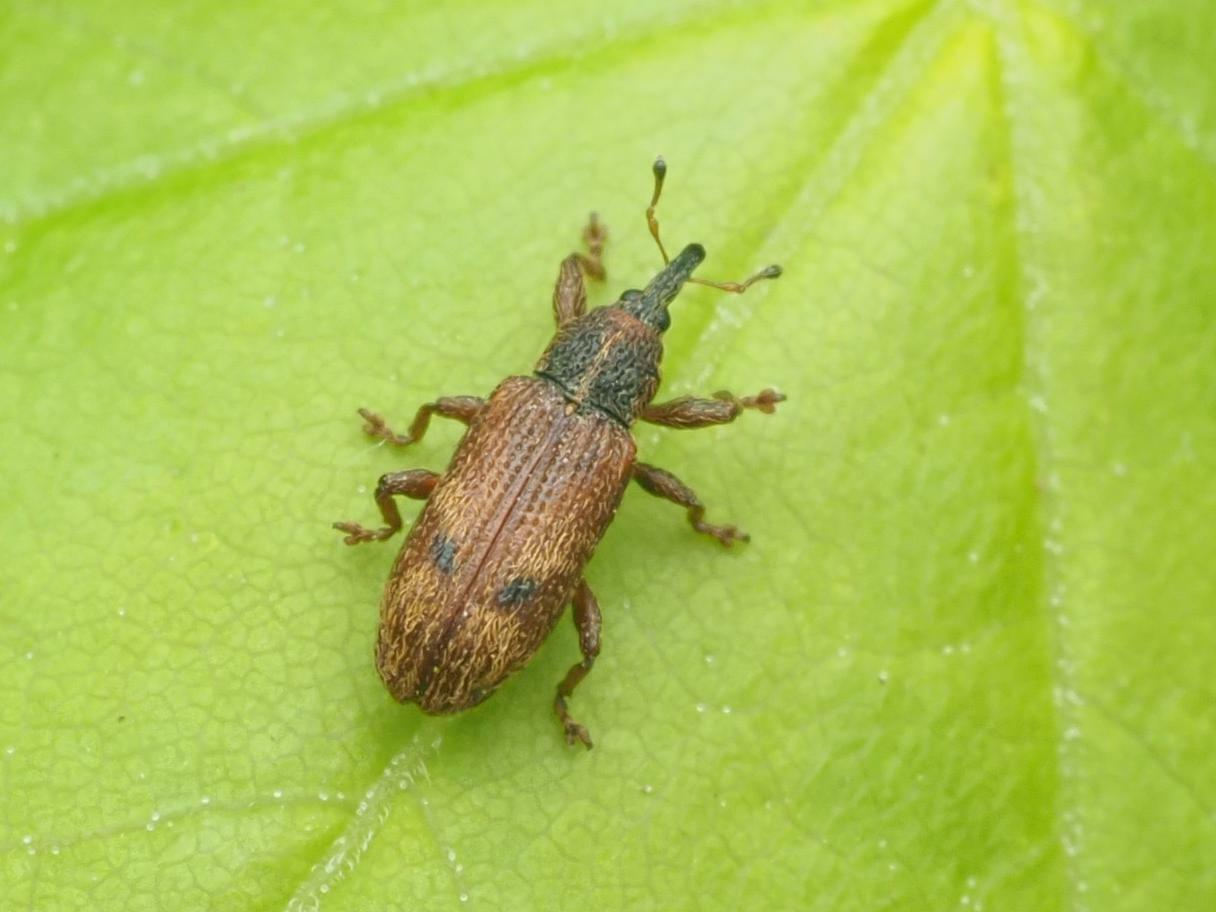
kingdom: Animalia
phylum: Arthropoda
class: Insecta
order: Coleoptera
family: Curculionidae
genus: Bradybatus
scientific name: Bradybatus creutzeri
